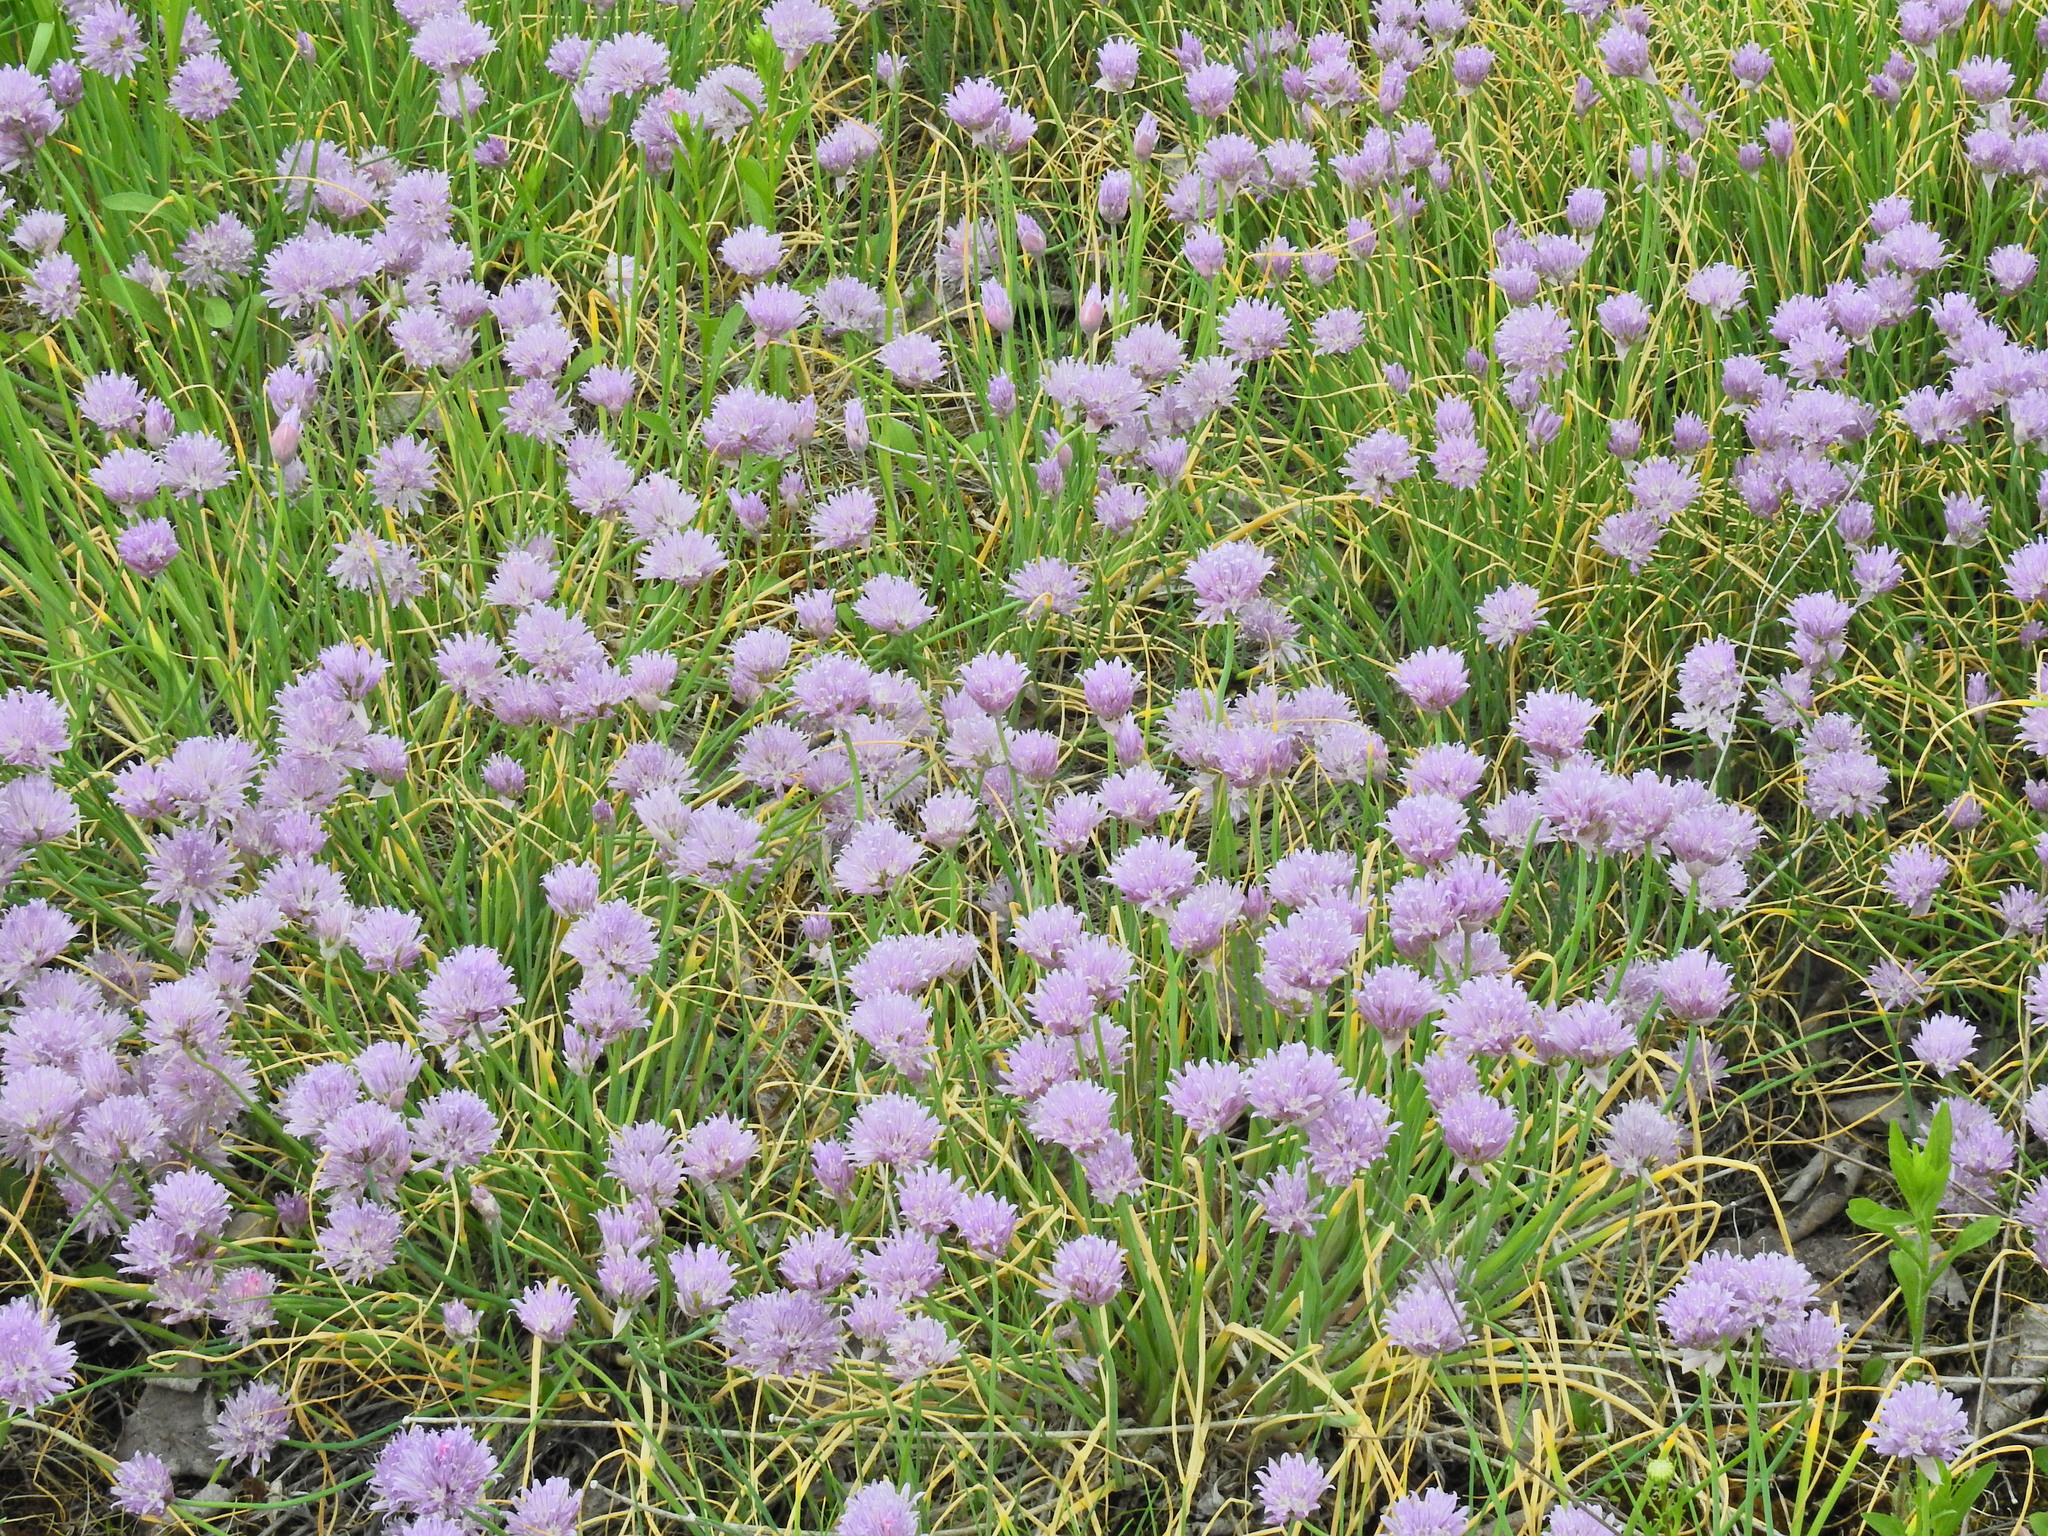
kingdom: Plantae
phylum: Tracheophyta
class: Liliopsida
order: Asparagales
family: Amaryllidaceae
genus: Allium
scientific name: Allium schoenoprasum
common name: Chives
